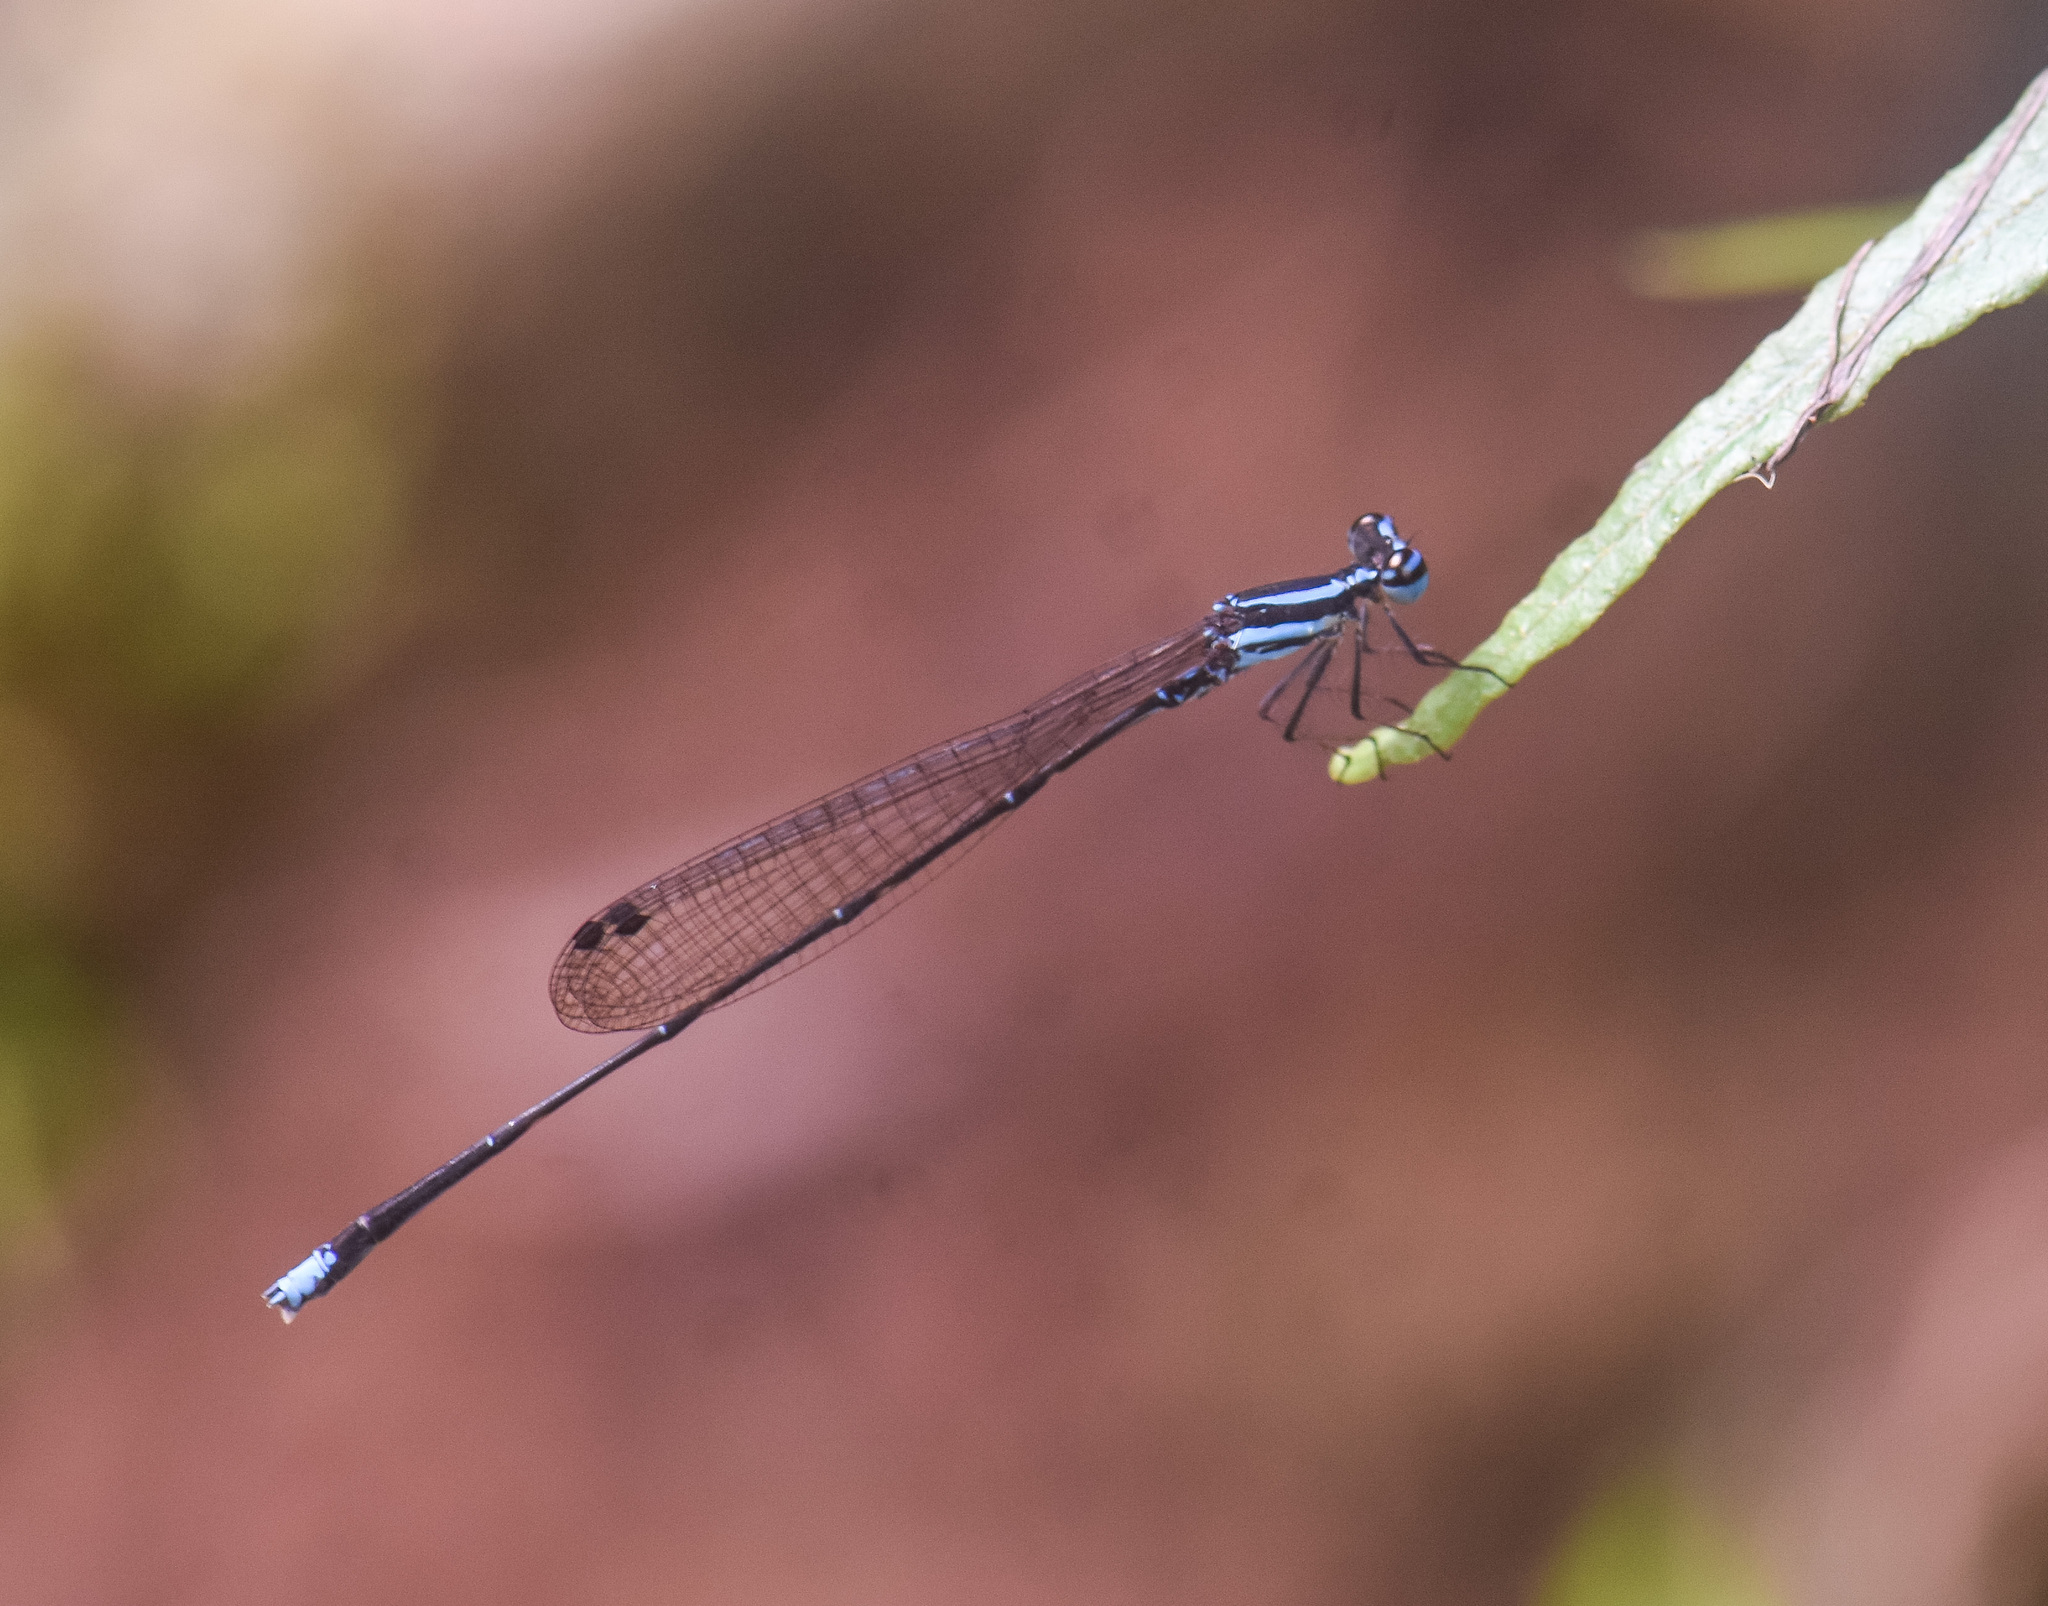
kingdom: Animalia
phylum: Arthropoda
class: Insecta
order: Odonata
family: Platycnemididae
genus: Elattoneura
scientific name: Elattoneura campioni
